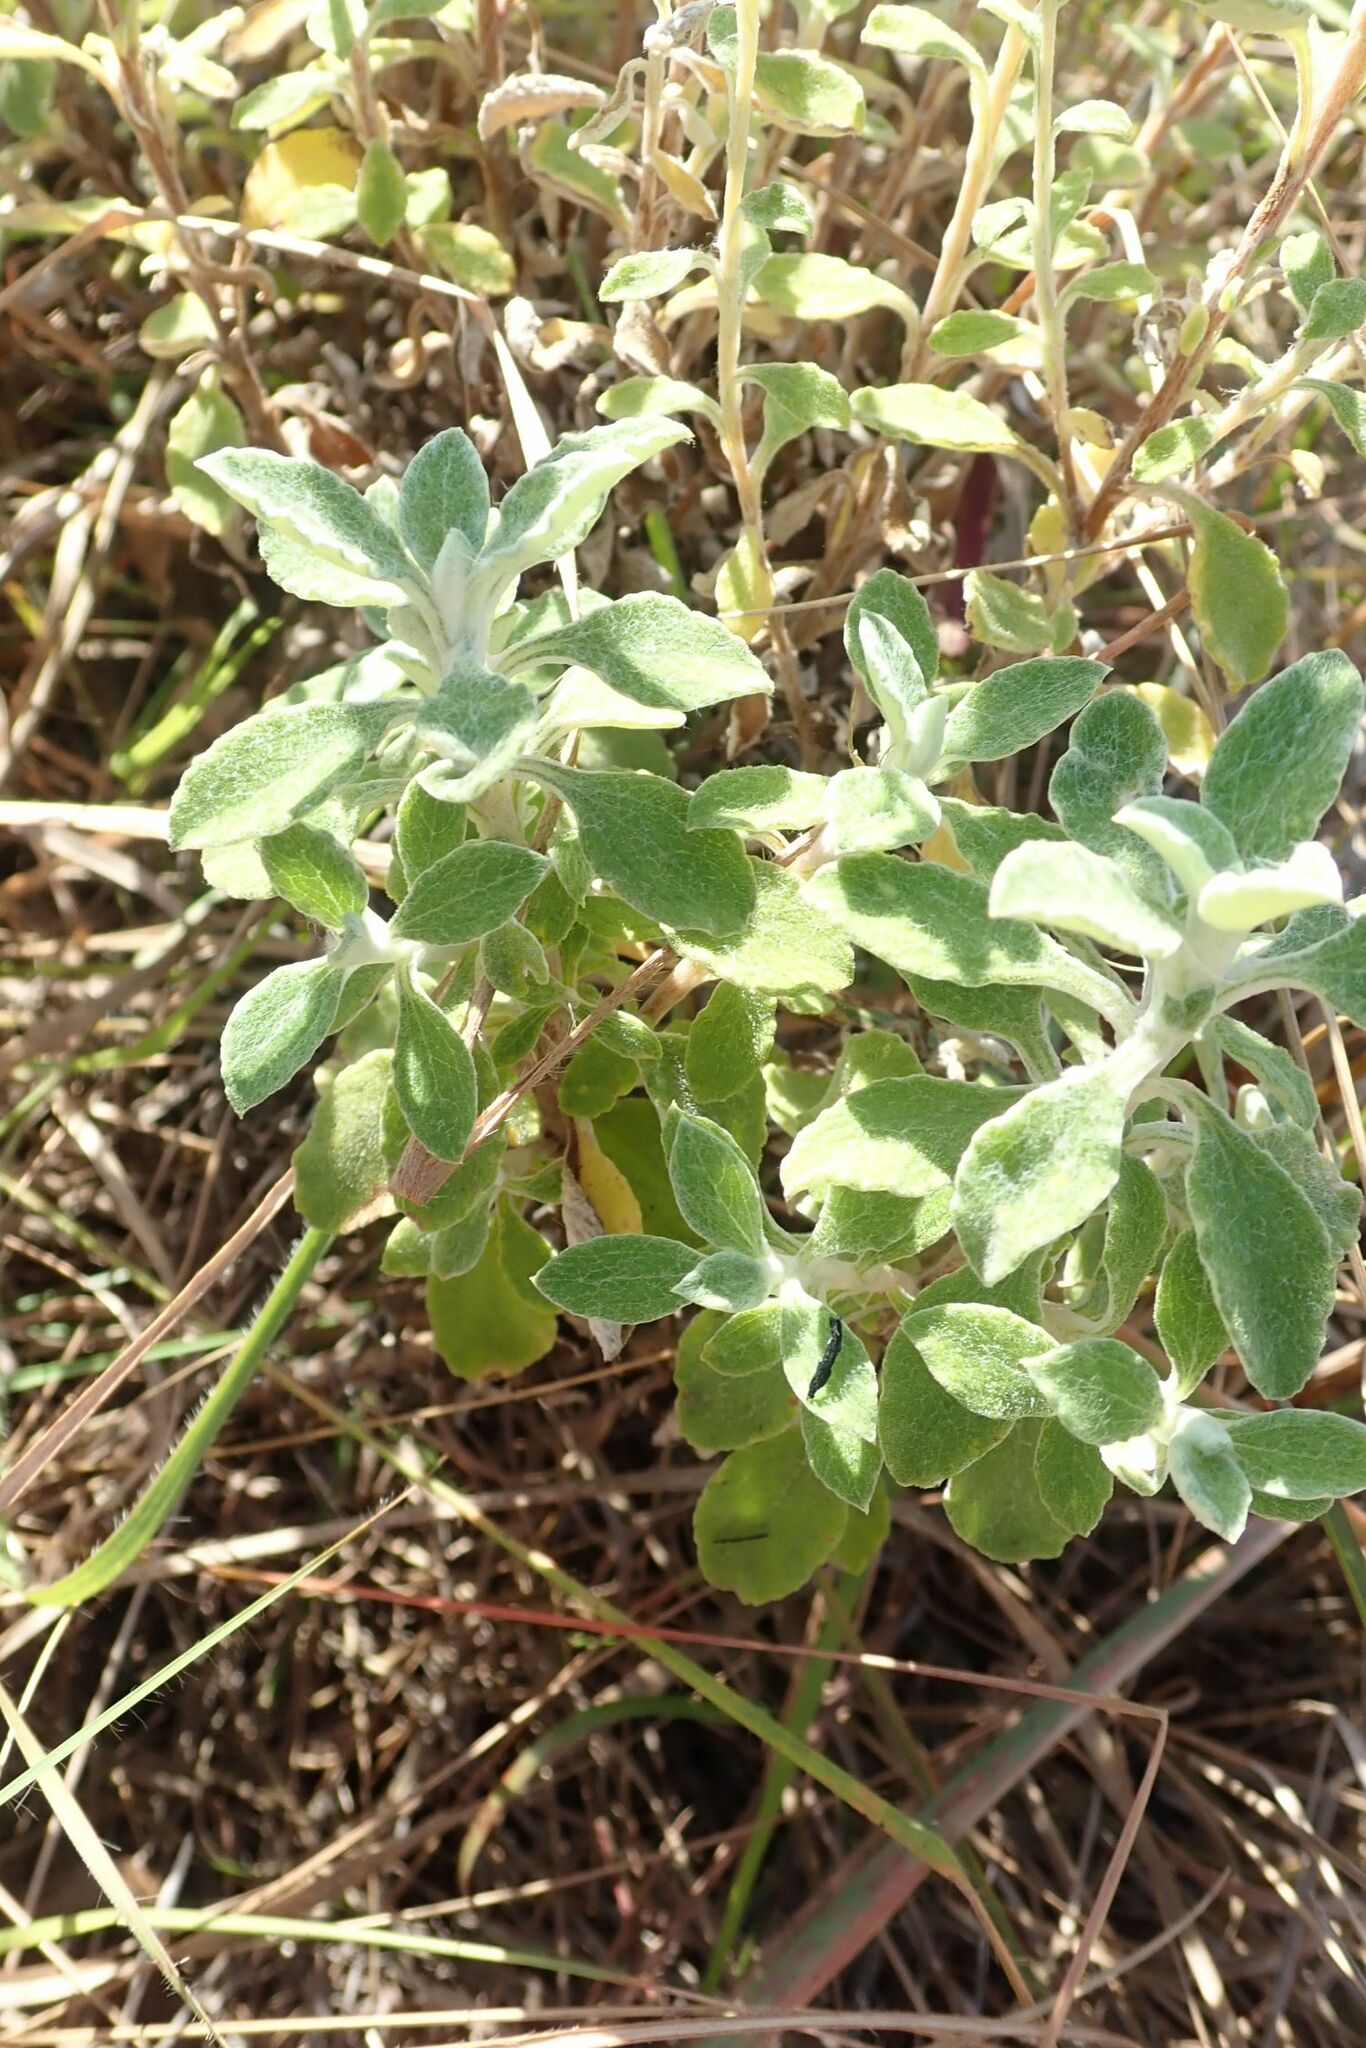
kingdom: Plantae
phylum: Tracheophyta
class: Magnoliopsida
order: Asterales
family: Asteraceae
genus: Helichrysum
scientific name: Helichrysum lepidissimum
